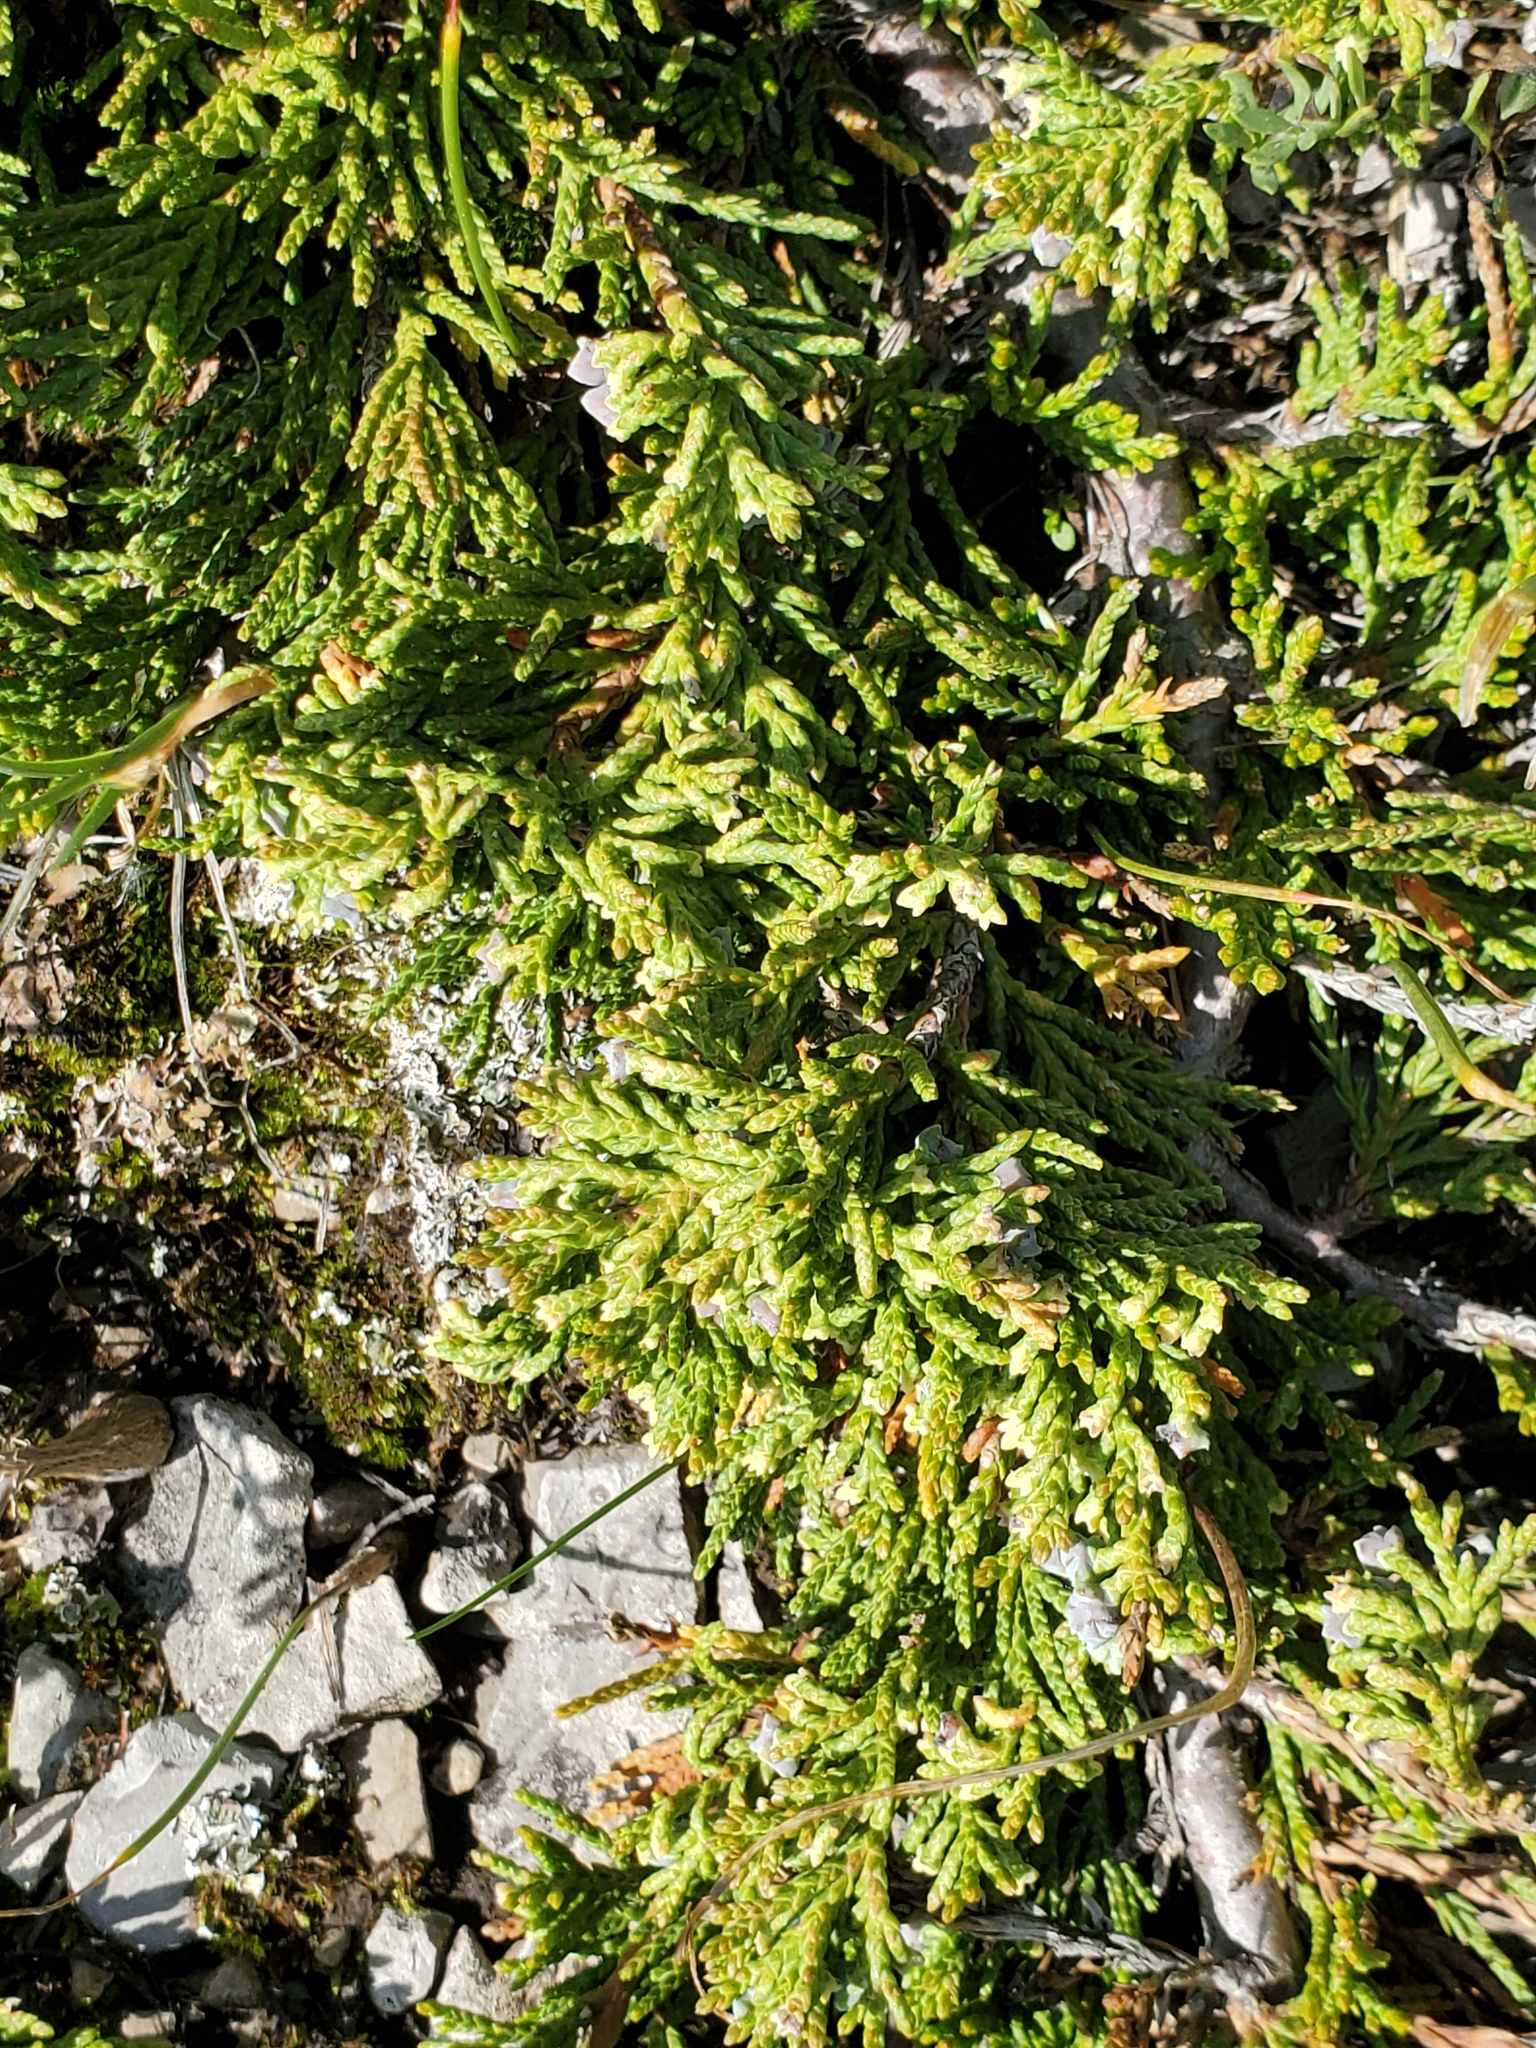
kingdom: Plantae
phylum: Tracheophyta
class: Pinopsida
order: Pinales
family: Cupressaceae
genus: Juniperus
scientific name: Juniperus horizontalis
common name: Creeping juniper
